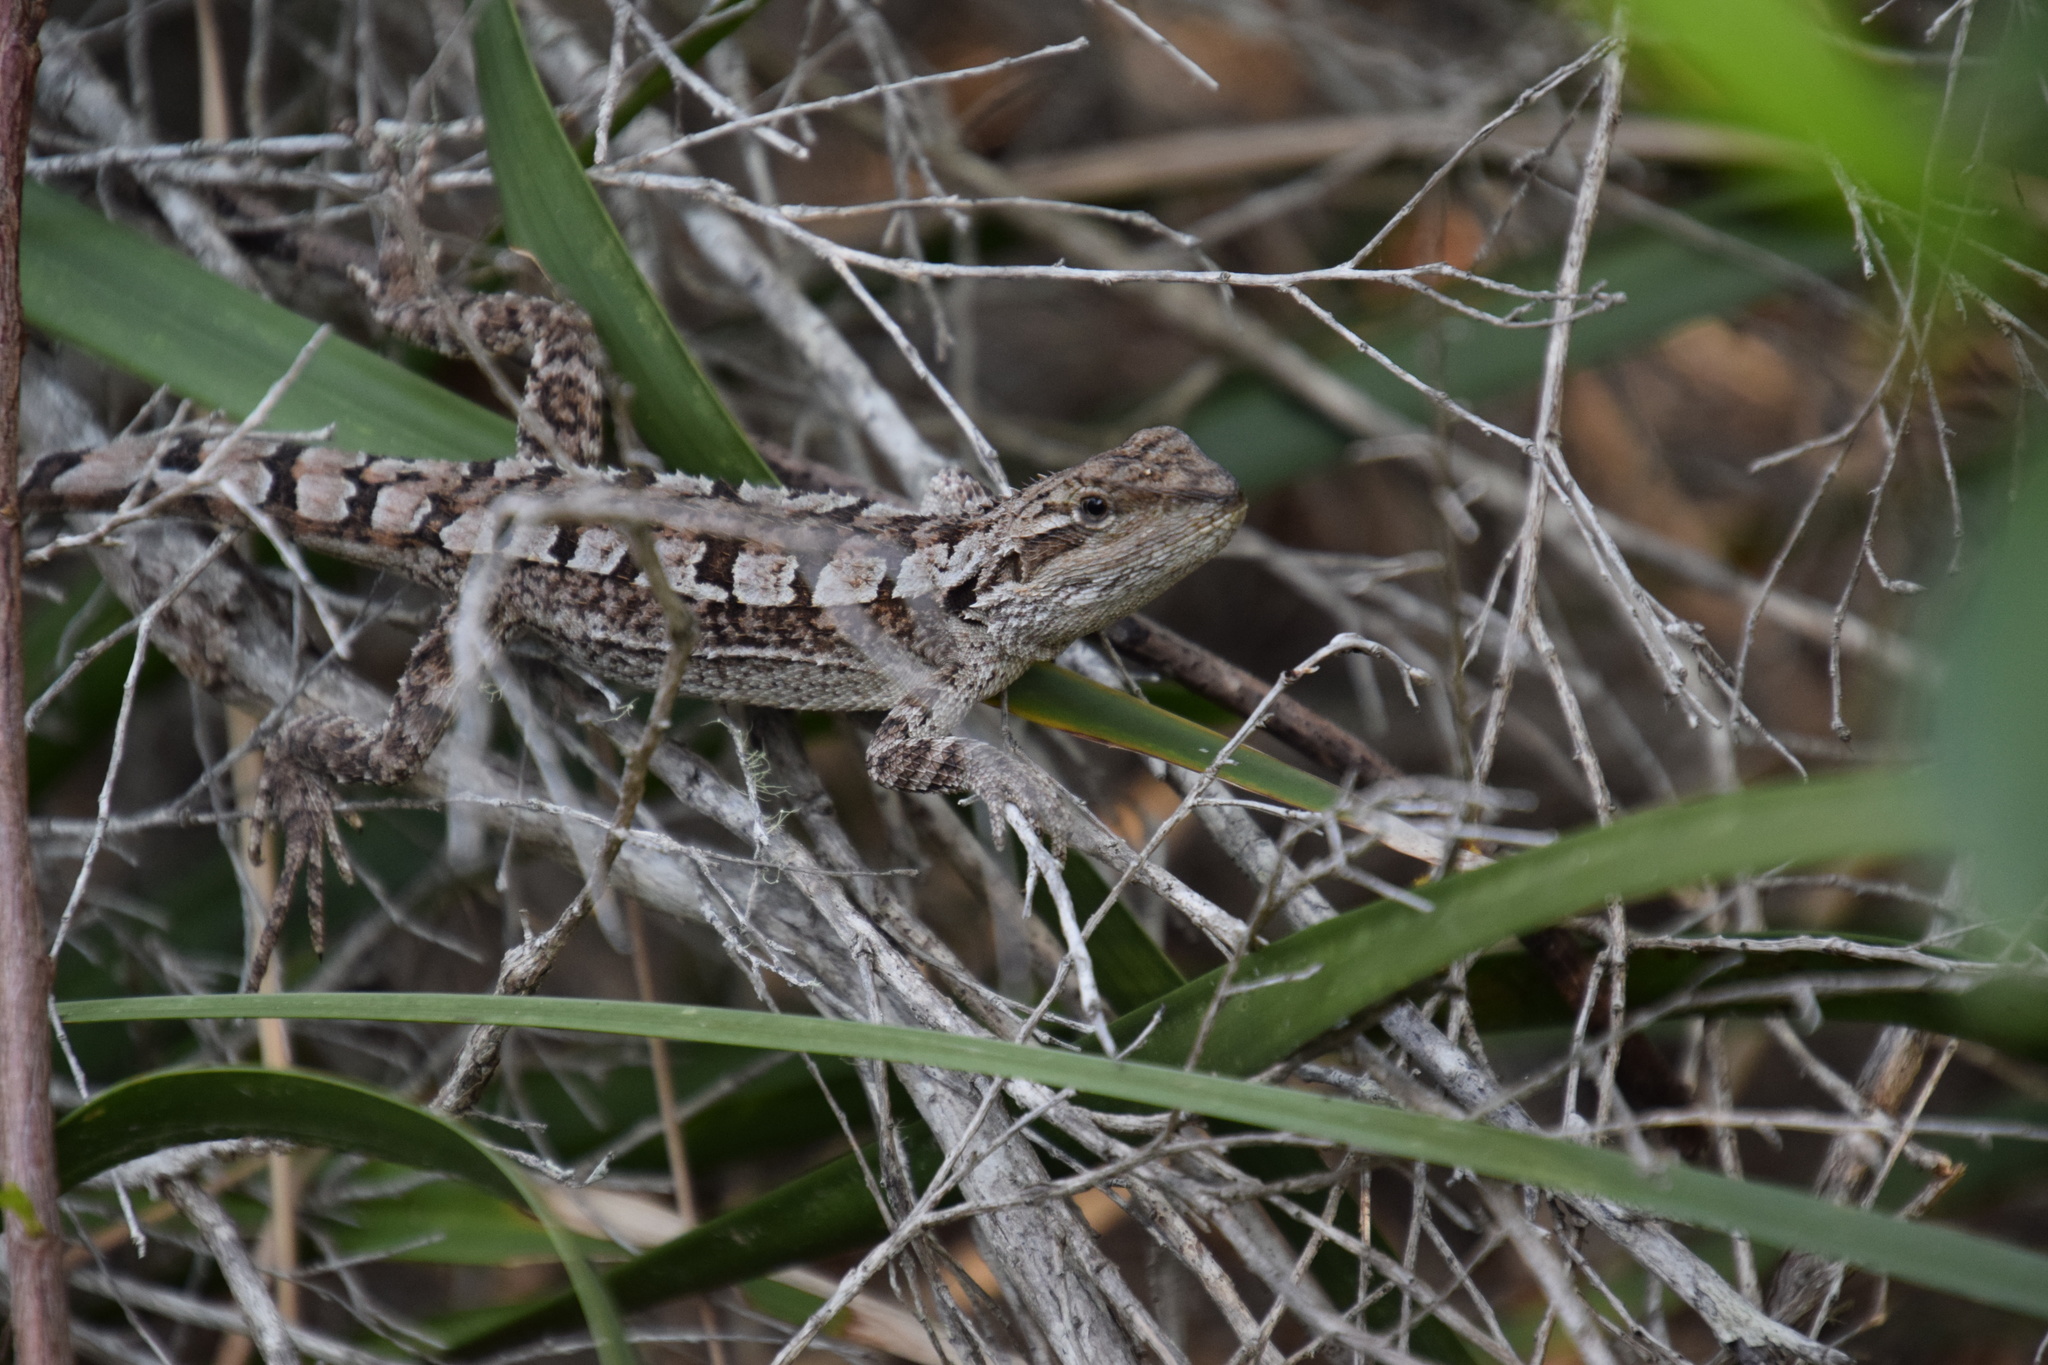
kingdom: Animalia
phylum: Chordata
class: Squamata
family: Agamidae
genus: Amphibolurus
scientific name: Amphibolurus muricatus
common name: Jacky lizard
